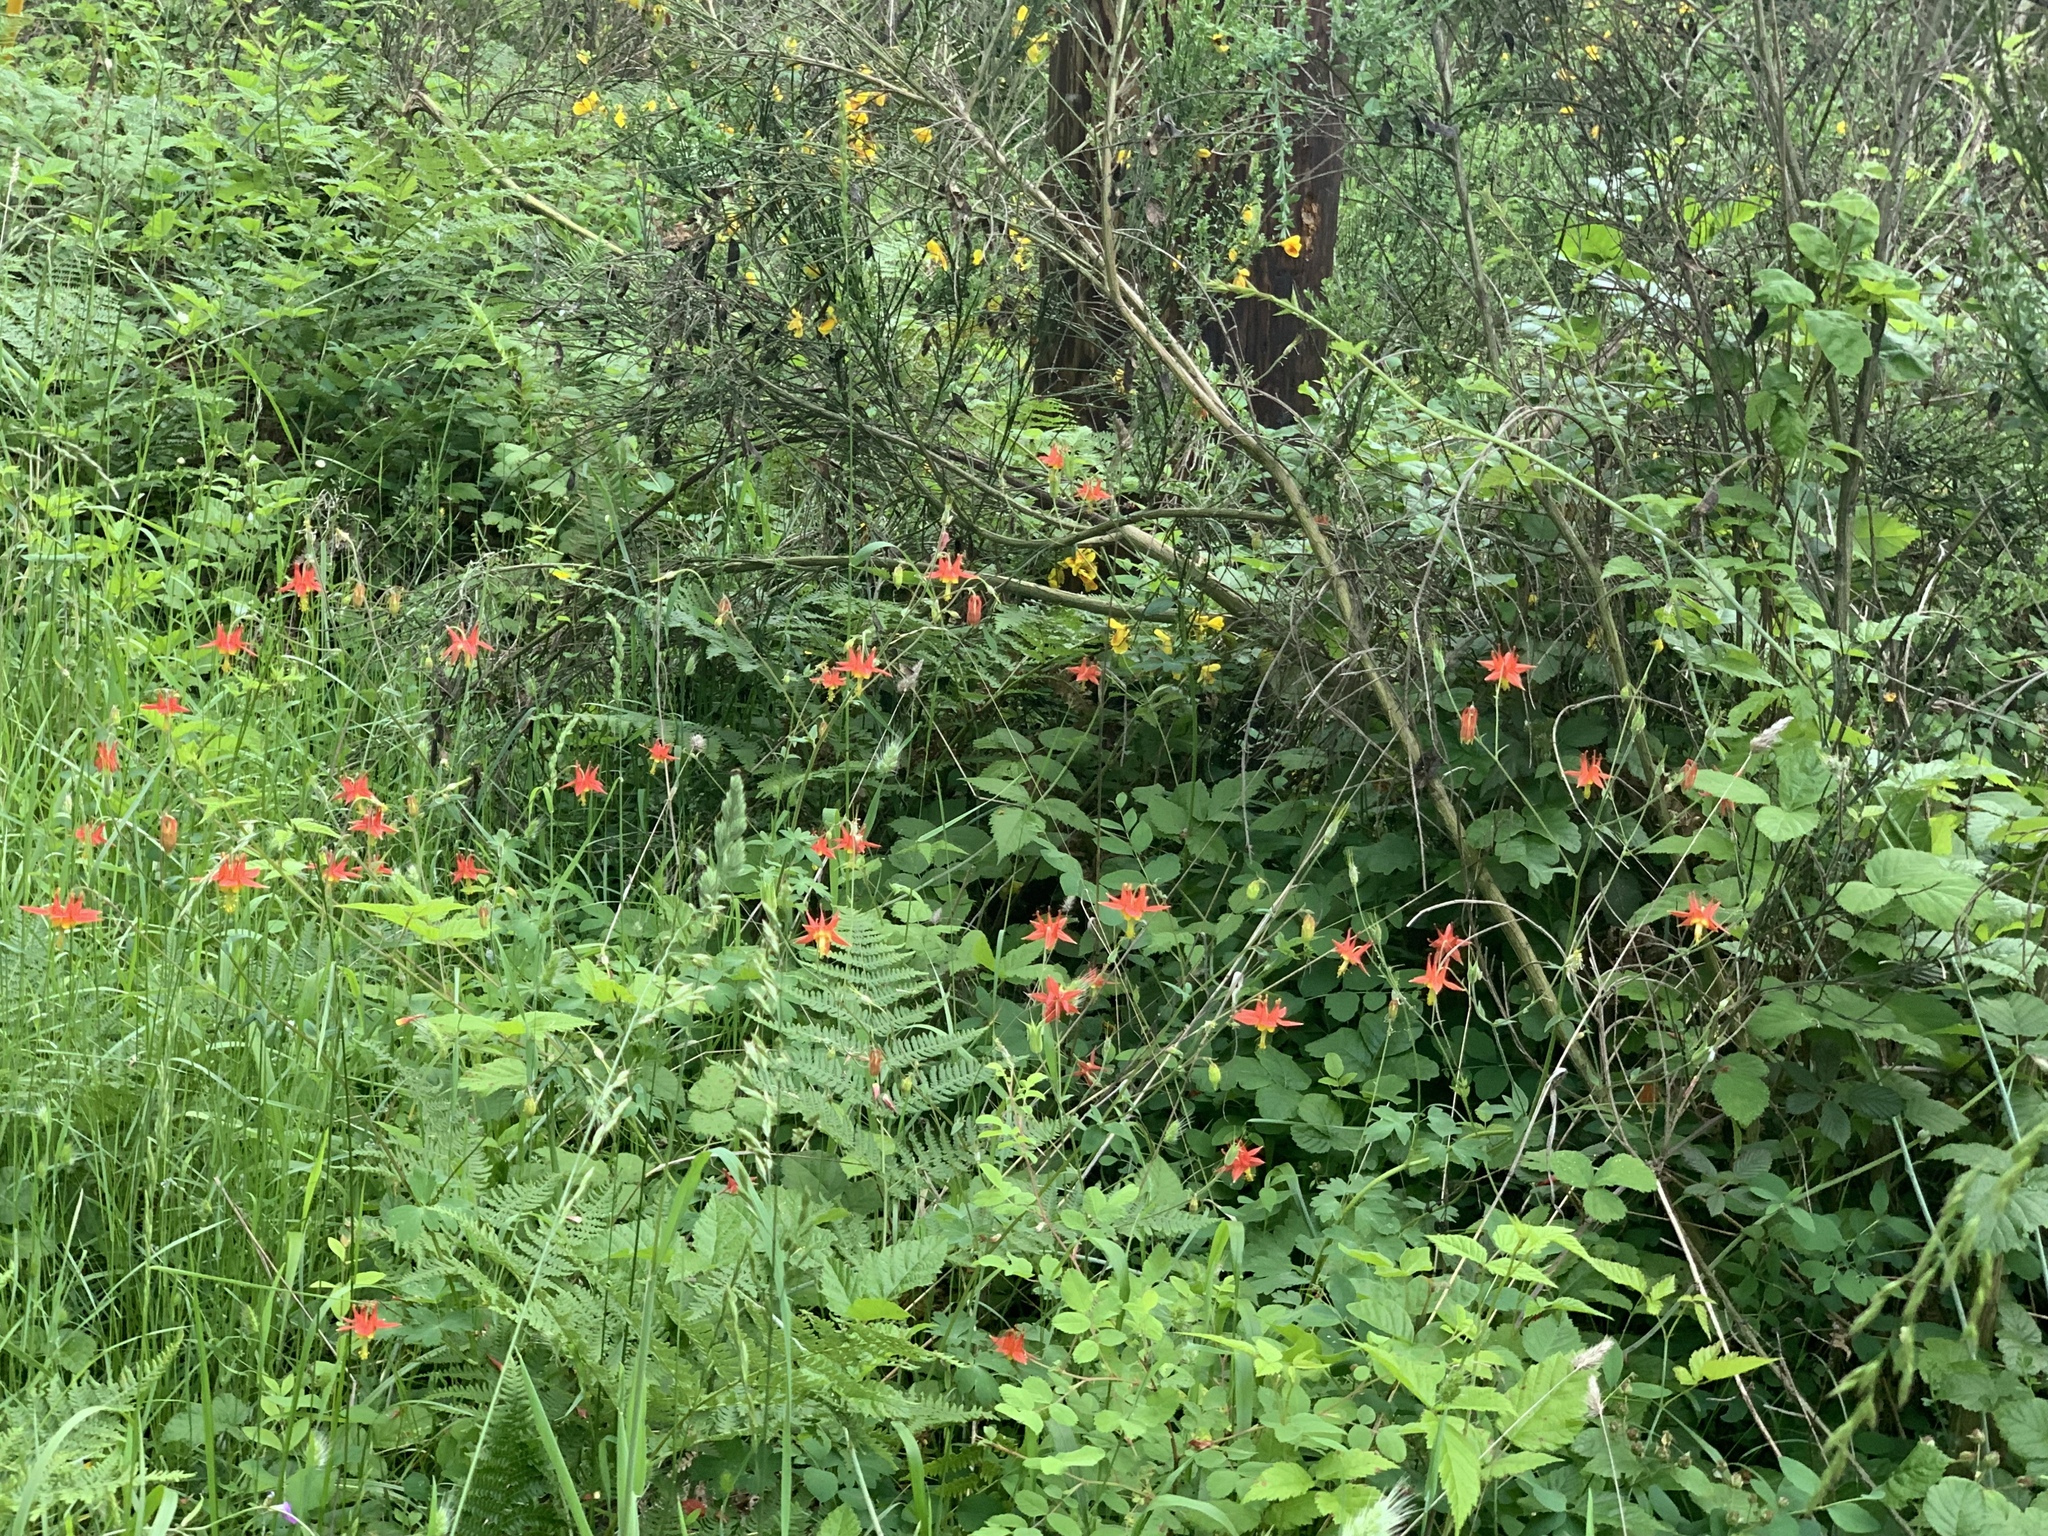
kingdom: Plantae
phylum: Tracheophyta
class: Magnoliopsida
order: Ranunculales
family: Ranunculaceae
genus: Aquilegia
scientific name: Aquilegia formosa
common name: Sitka columbine
